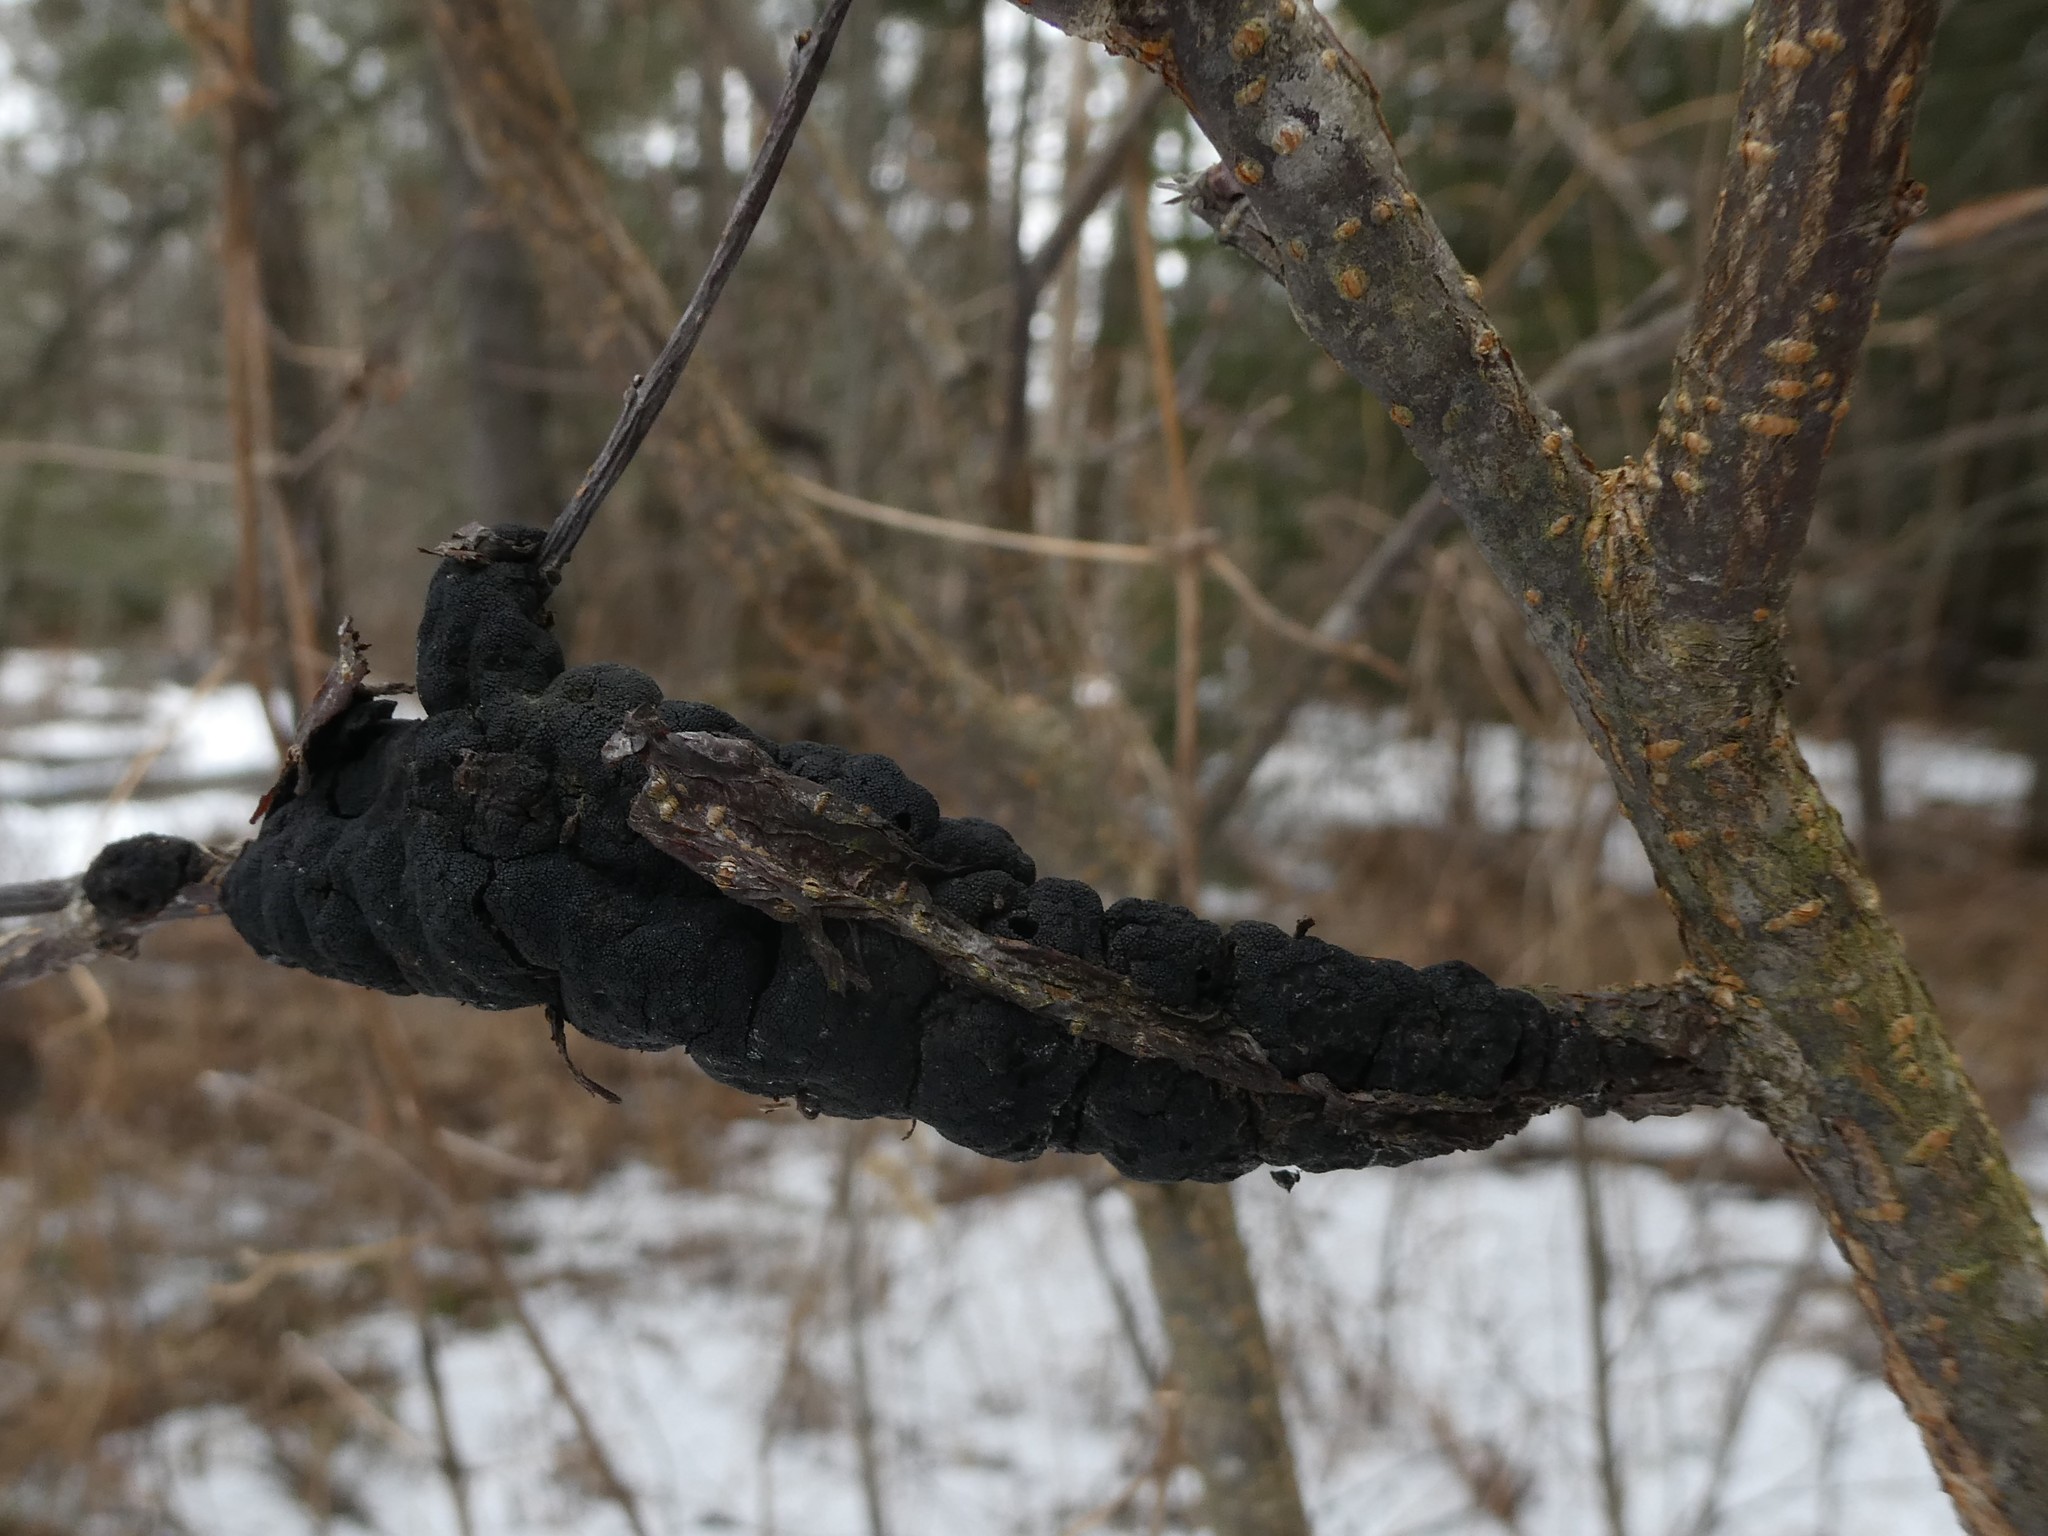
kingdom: Fungi
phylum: Ascomycota
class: Dothideomycetes
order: Venturiales
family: Venturiaceae
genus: Apiosporina
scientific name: Apiosporina morbosa
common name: Black knot
